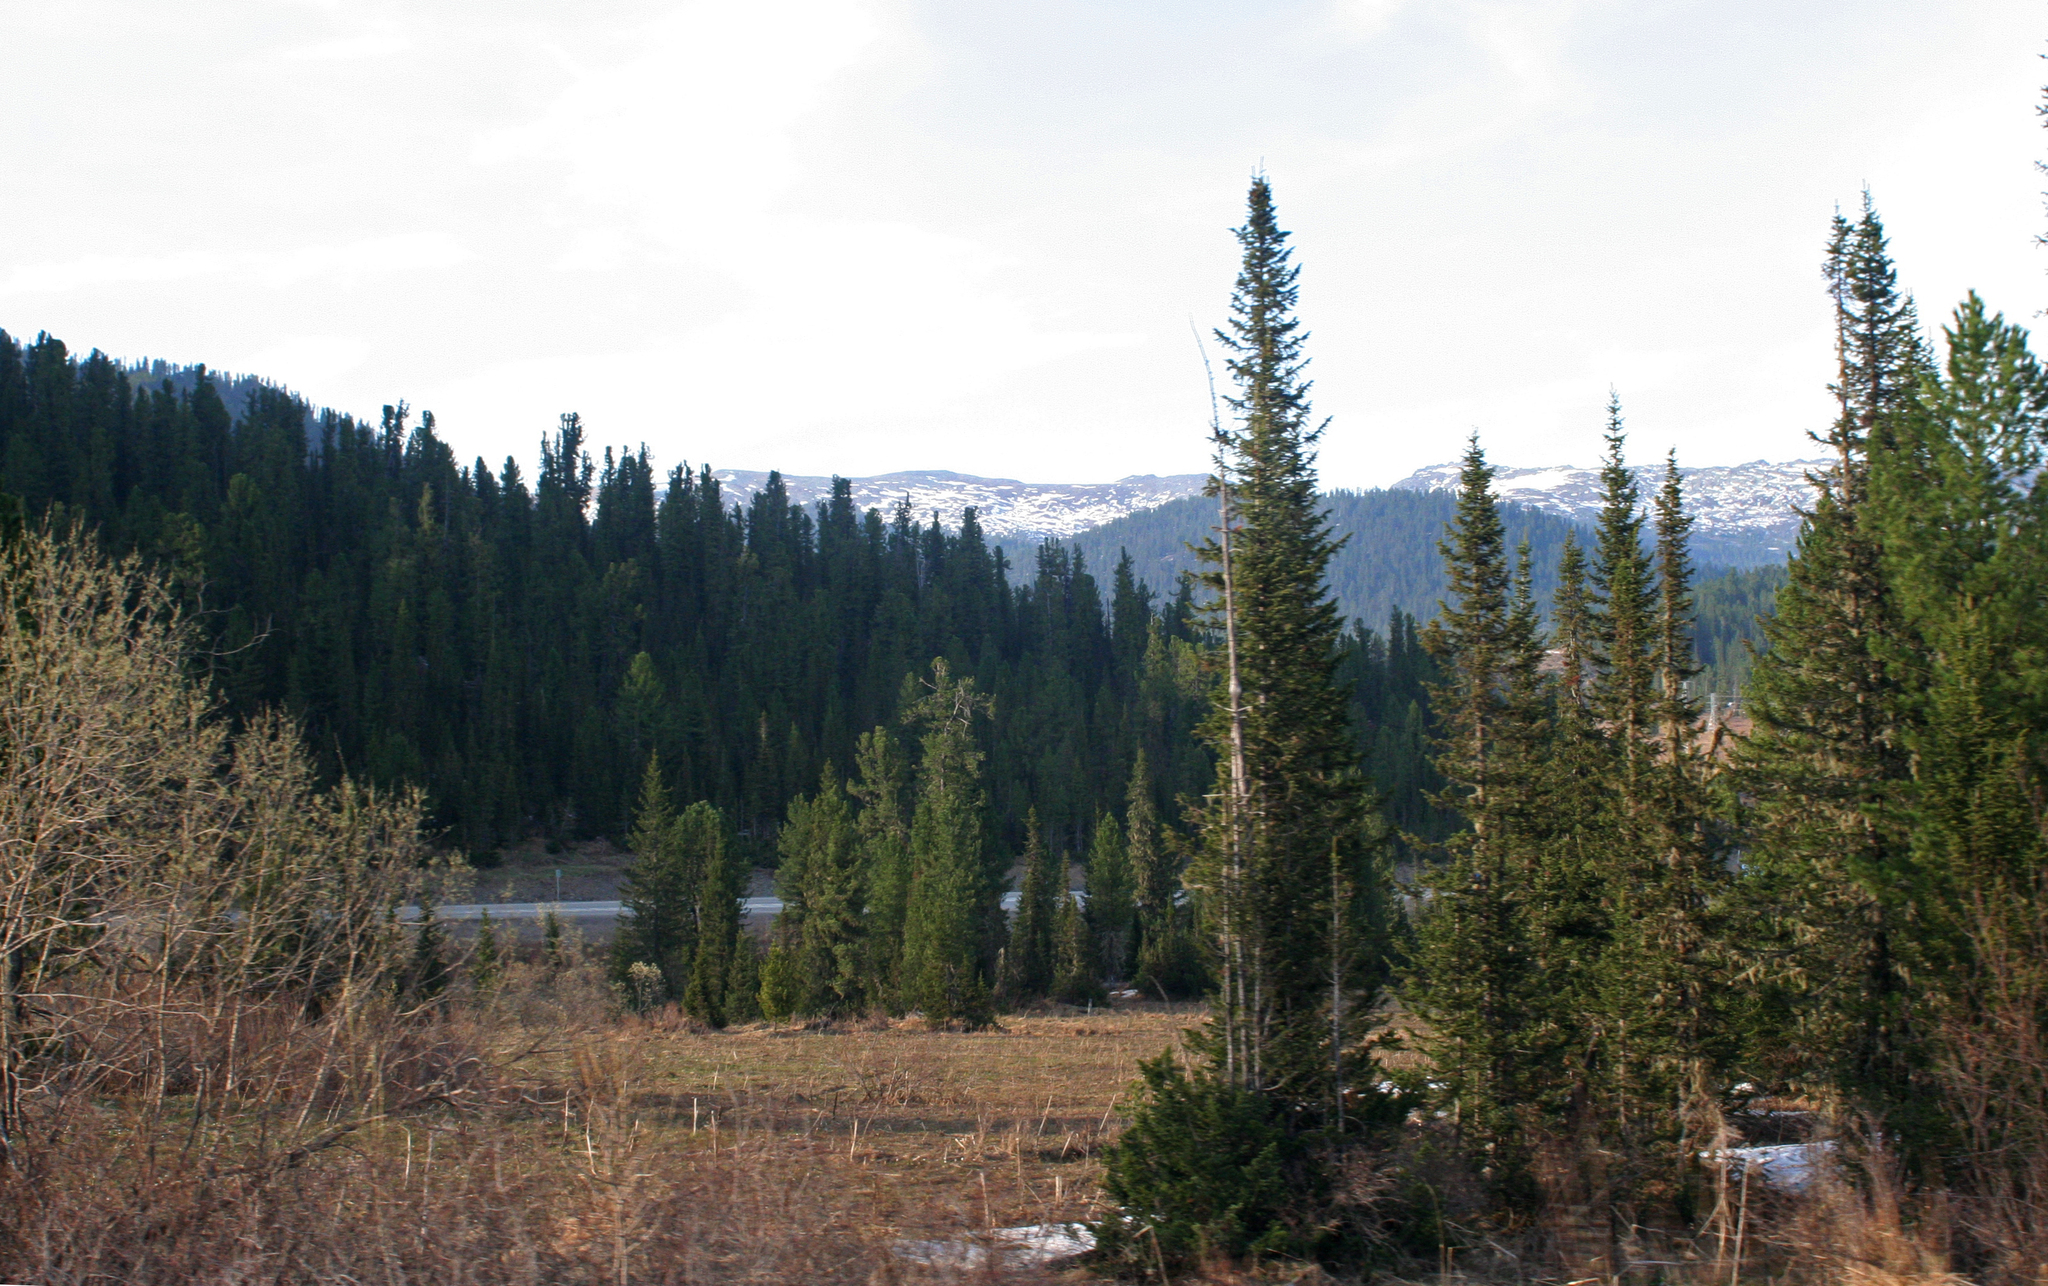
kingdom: Plantae
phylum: Tracheophyta
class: Pinopsida
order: Pinales
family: Pinaceae
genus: Abies
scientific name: Abies sibirica
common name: Siberian fir
